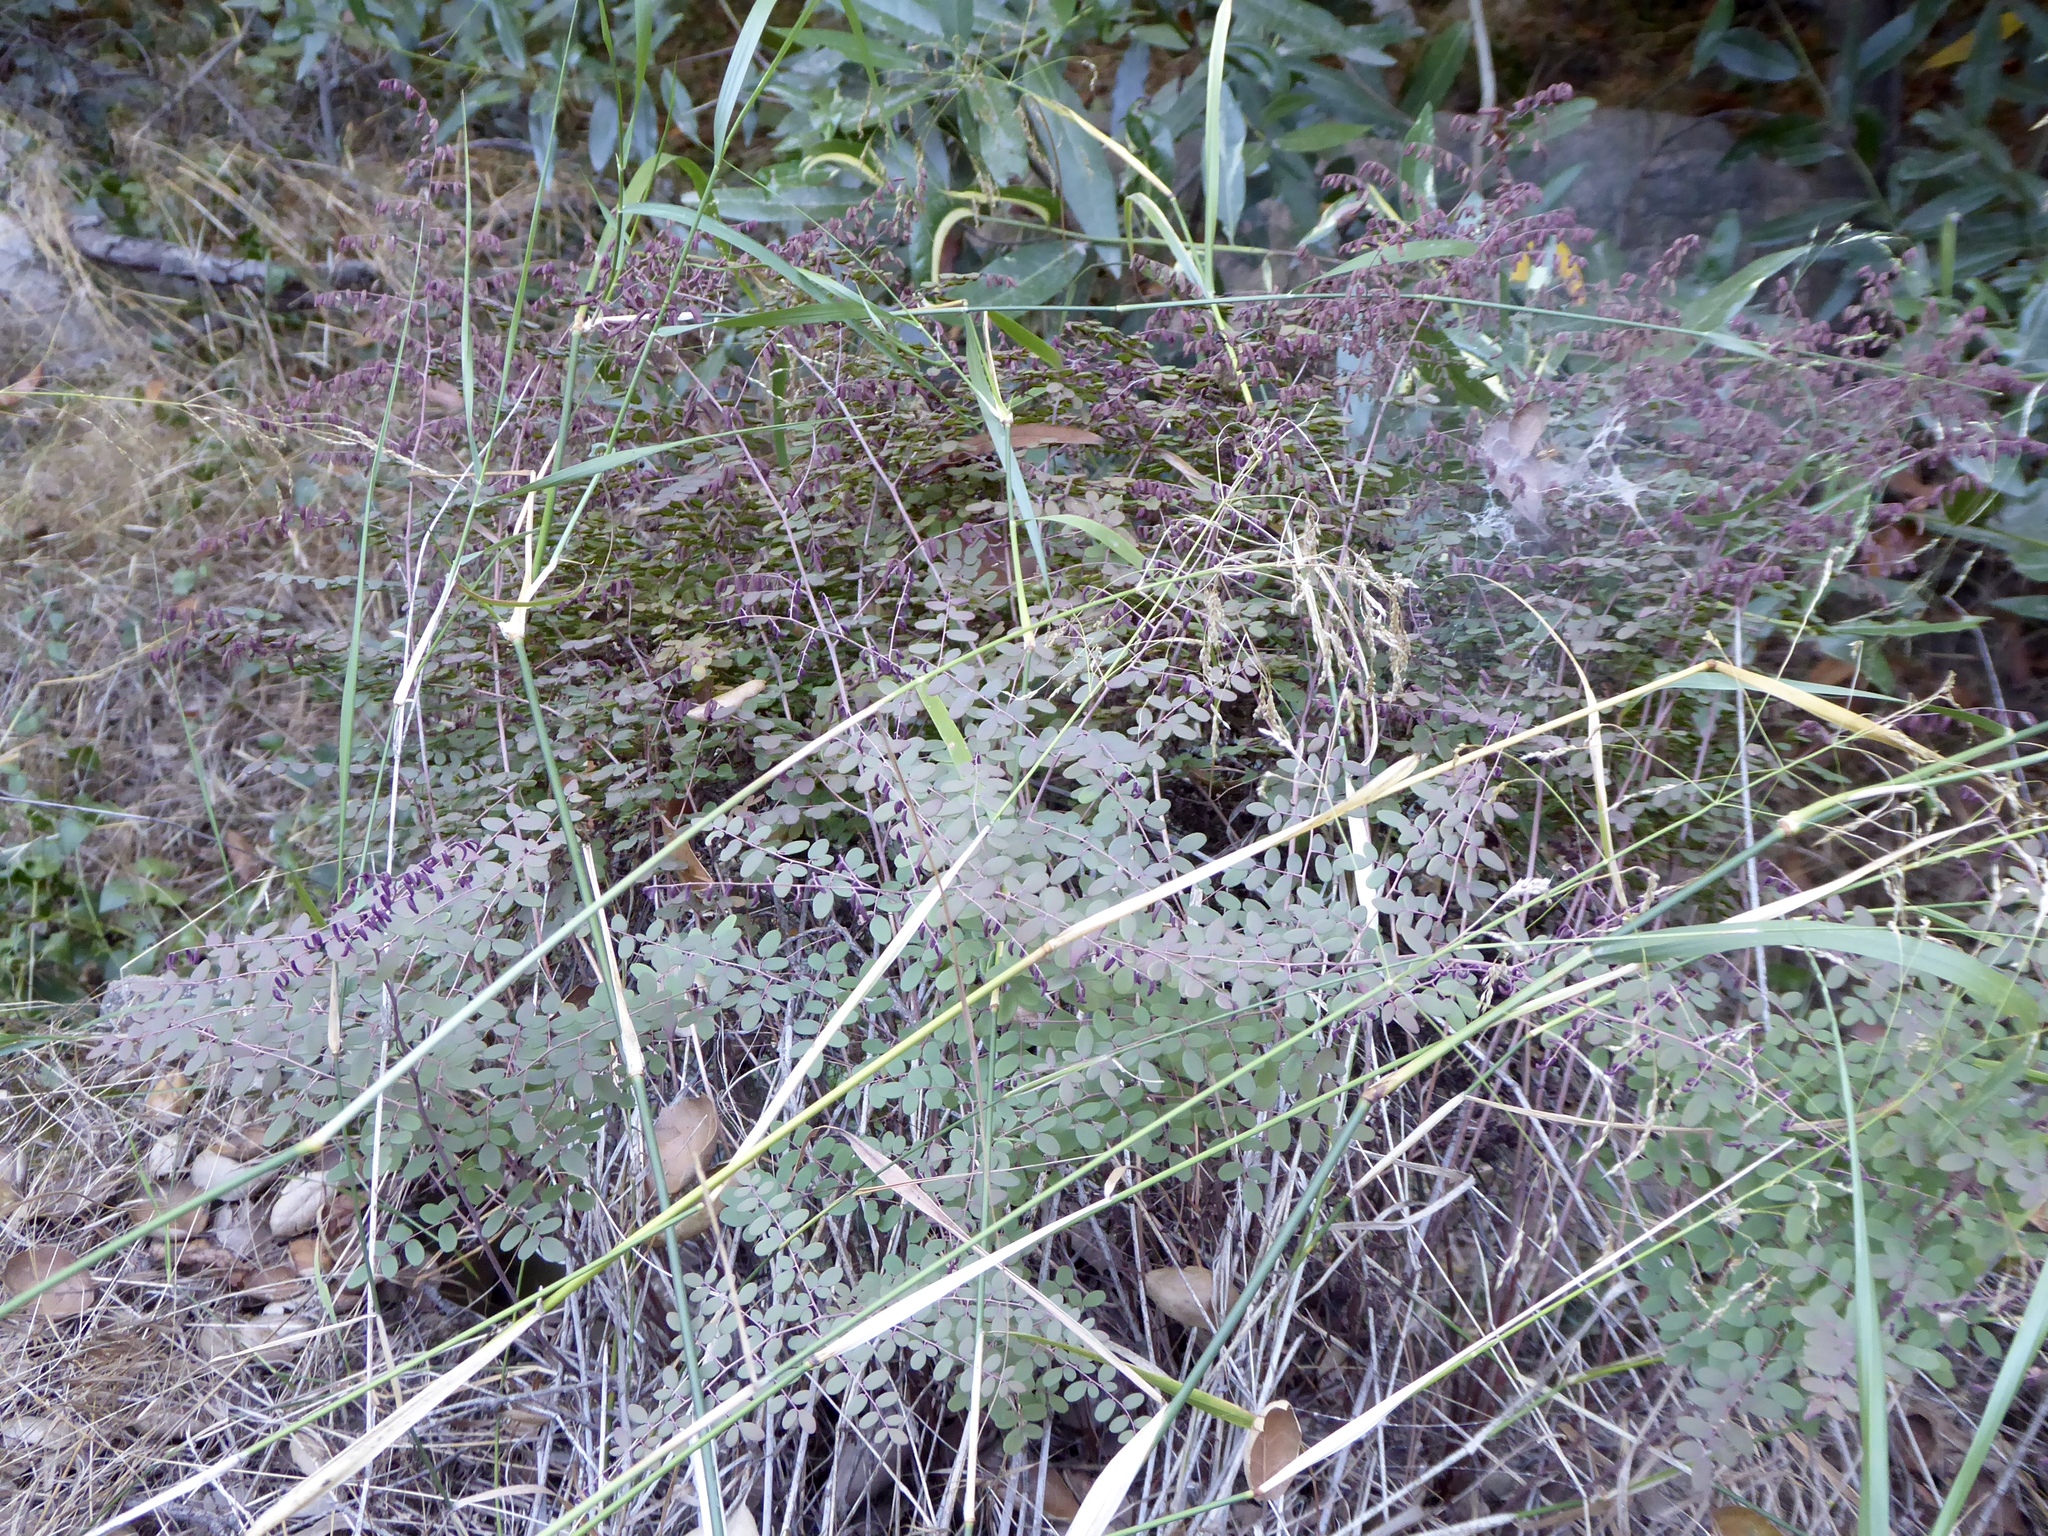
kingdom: Plantae
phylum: Tracheophyta
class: Polypodiopsida
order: Polypodiales
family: Pteridaceae
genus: Pellaea
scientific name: Pellaea andromedifolia
